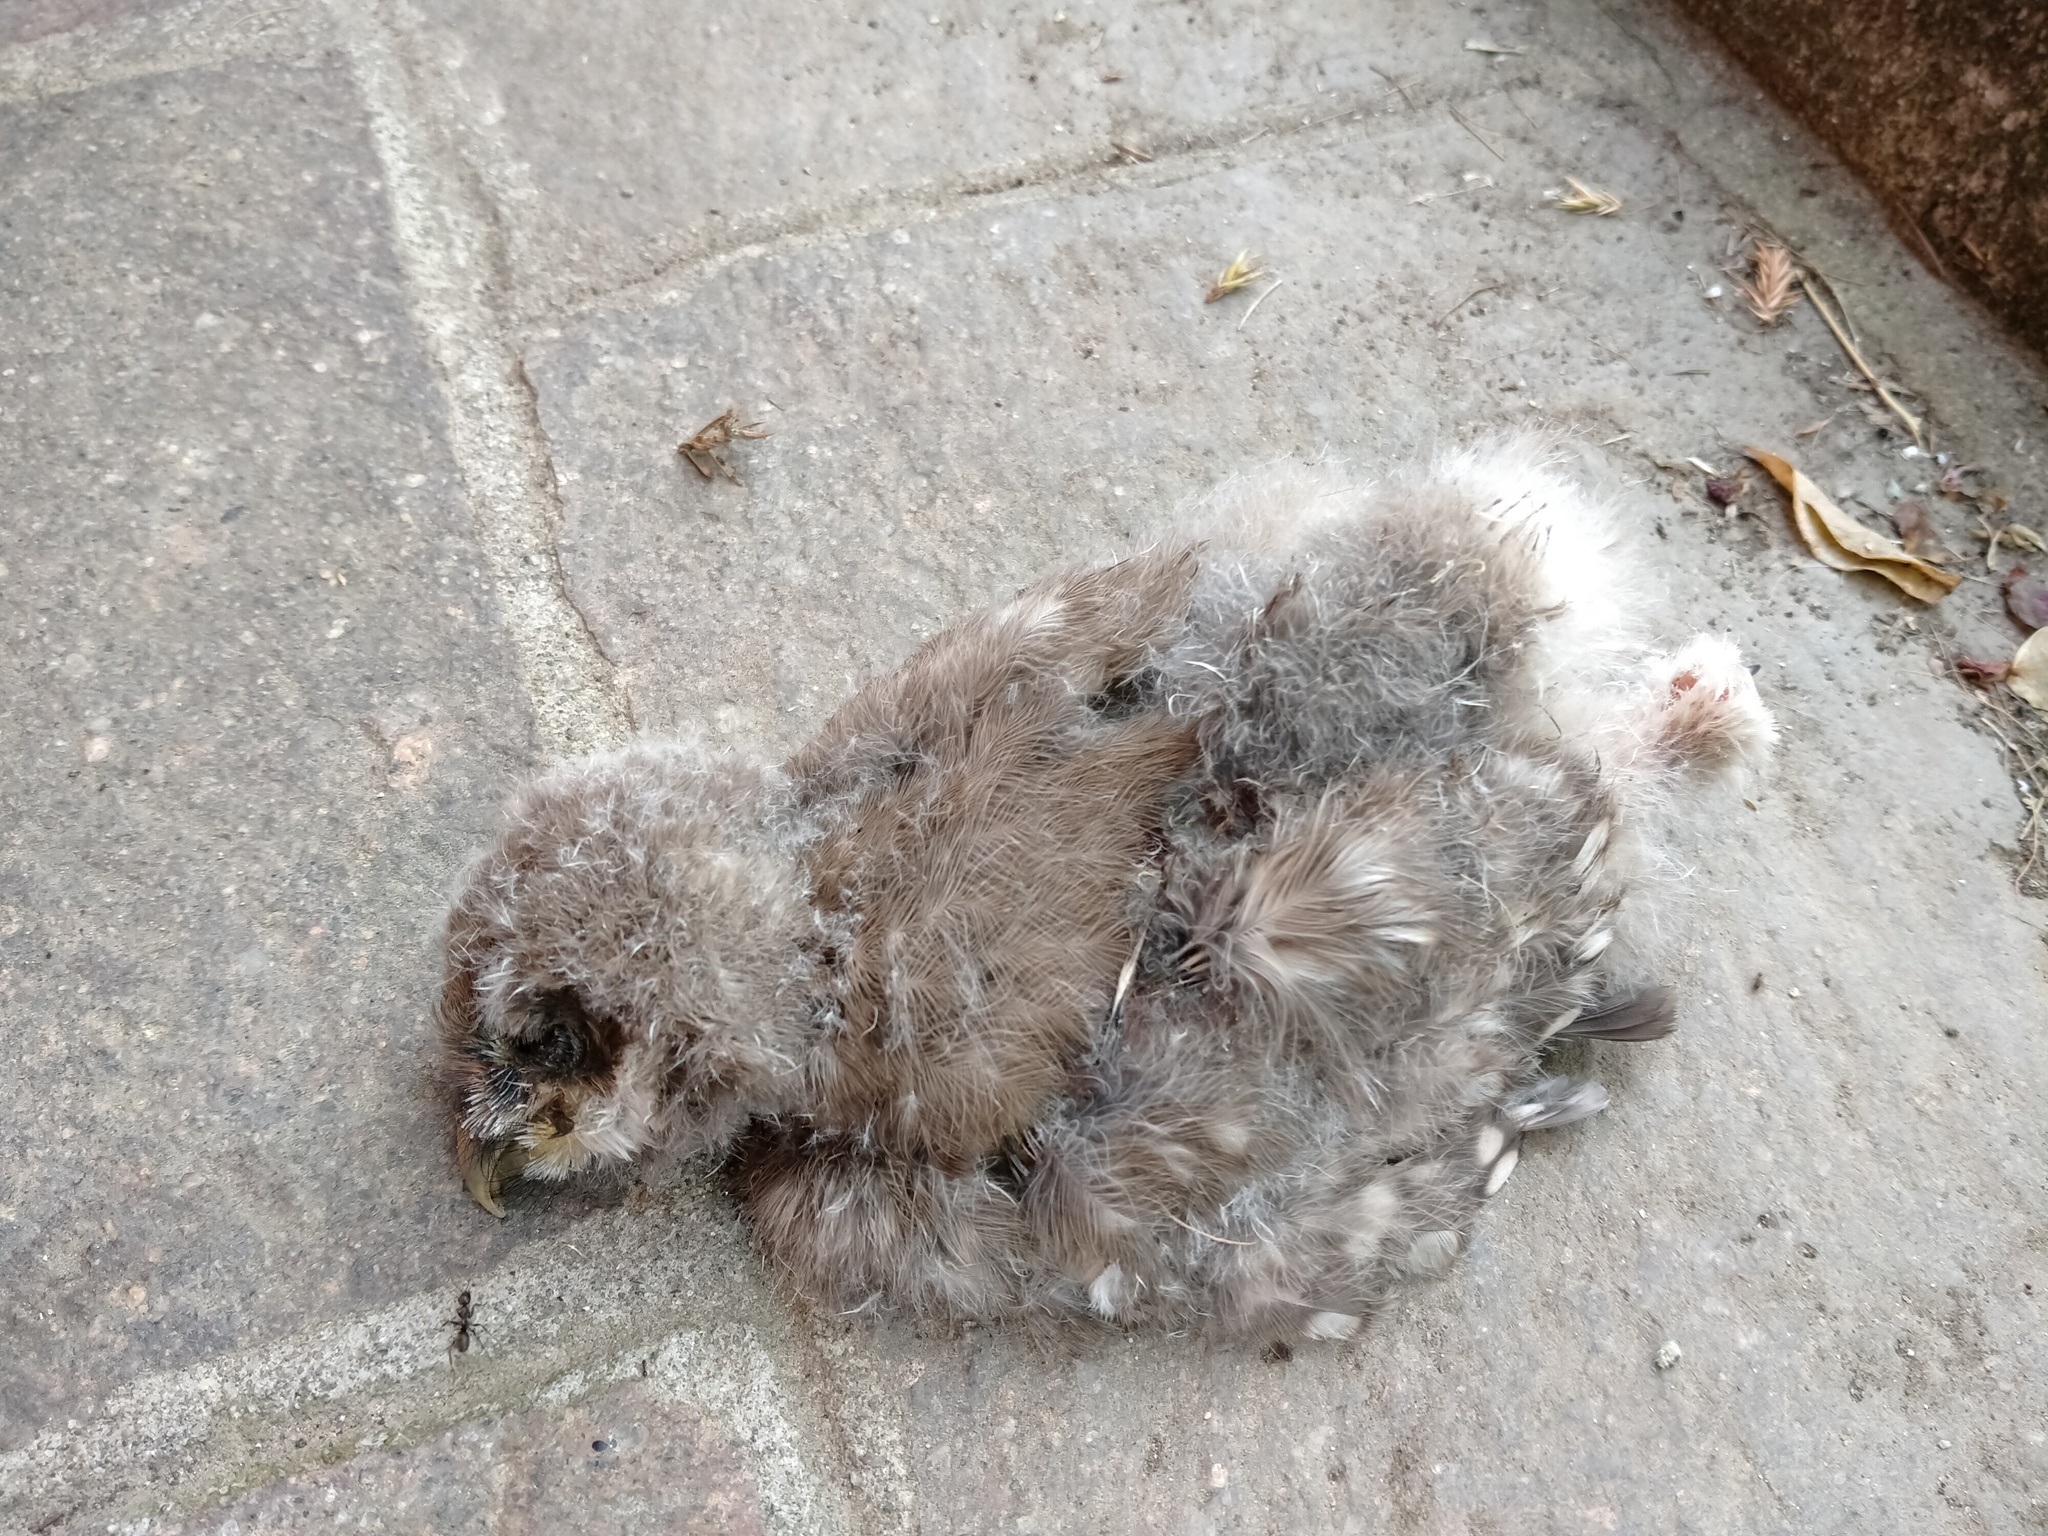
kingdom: Animalia
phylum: Chordata
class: Aves
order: Strigiformes
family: Strigidae
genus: Athene
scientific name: Athene noctua
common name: Little owl
